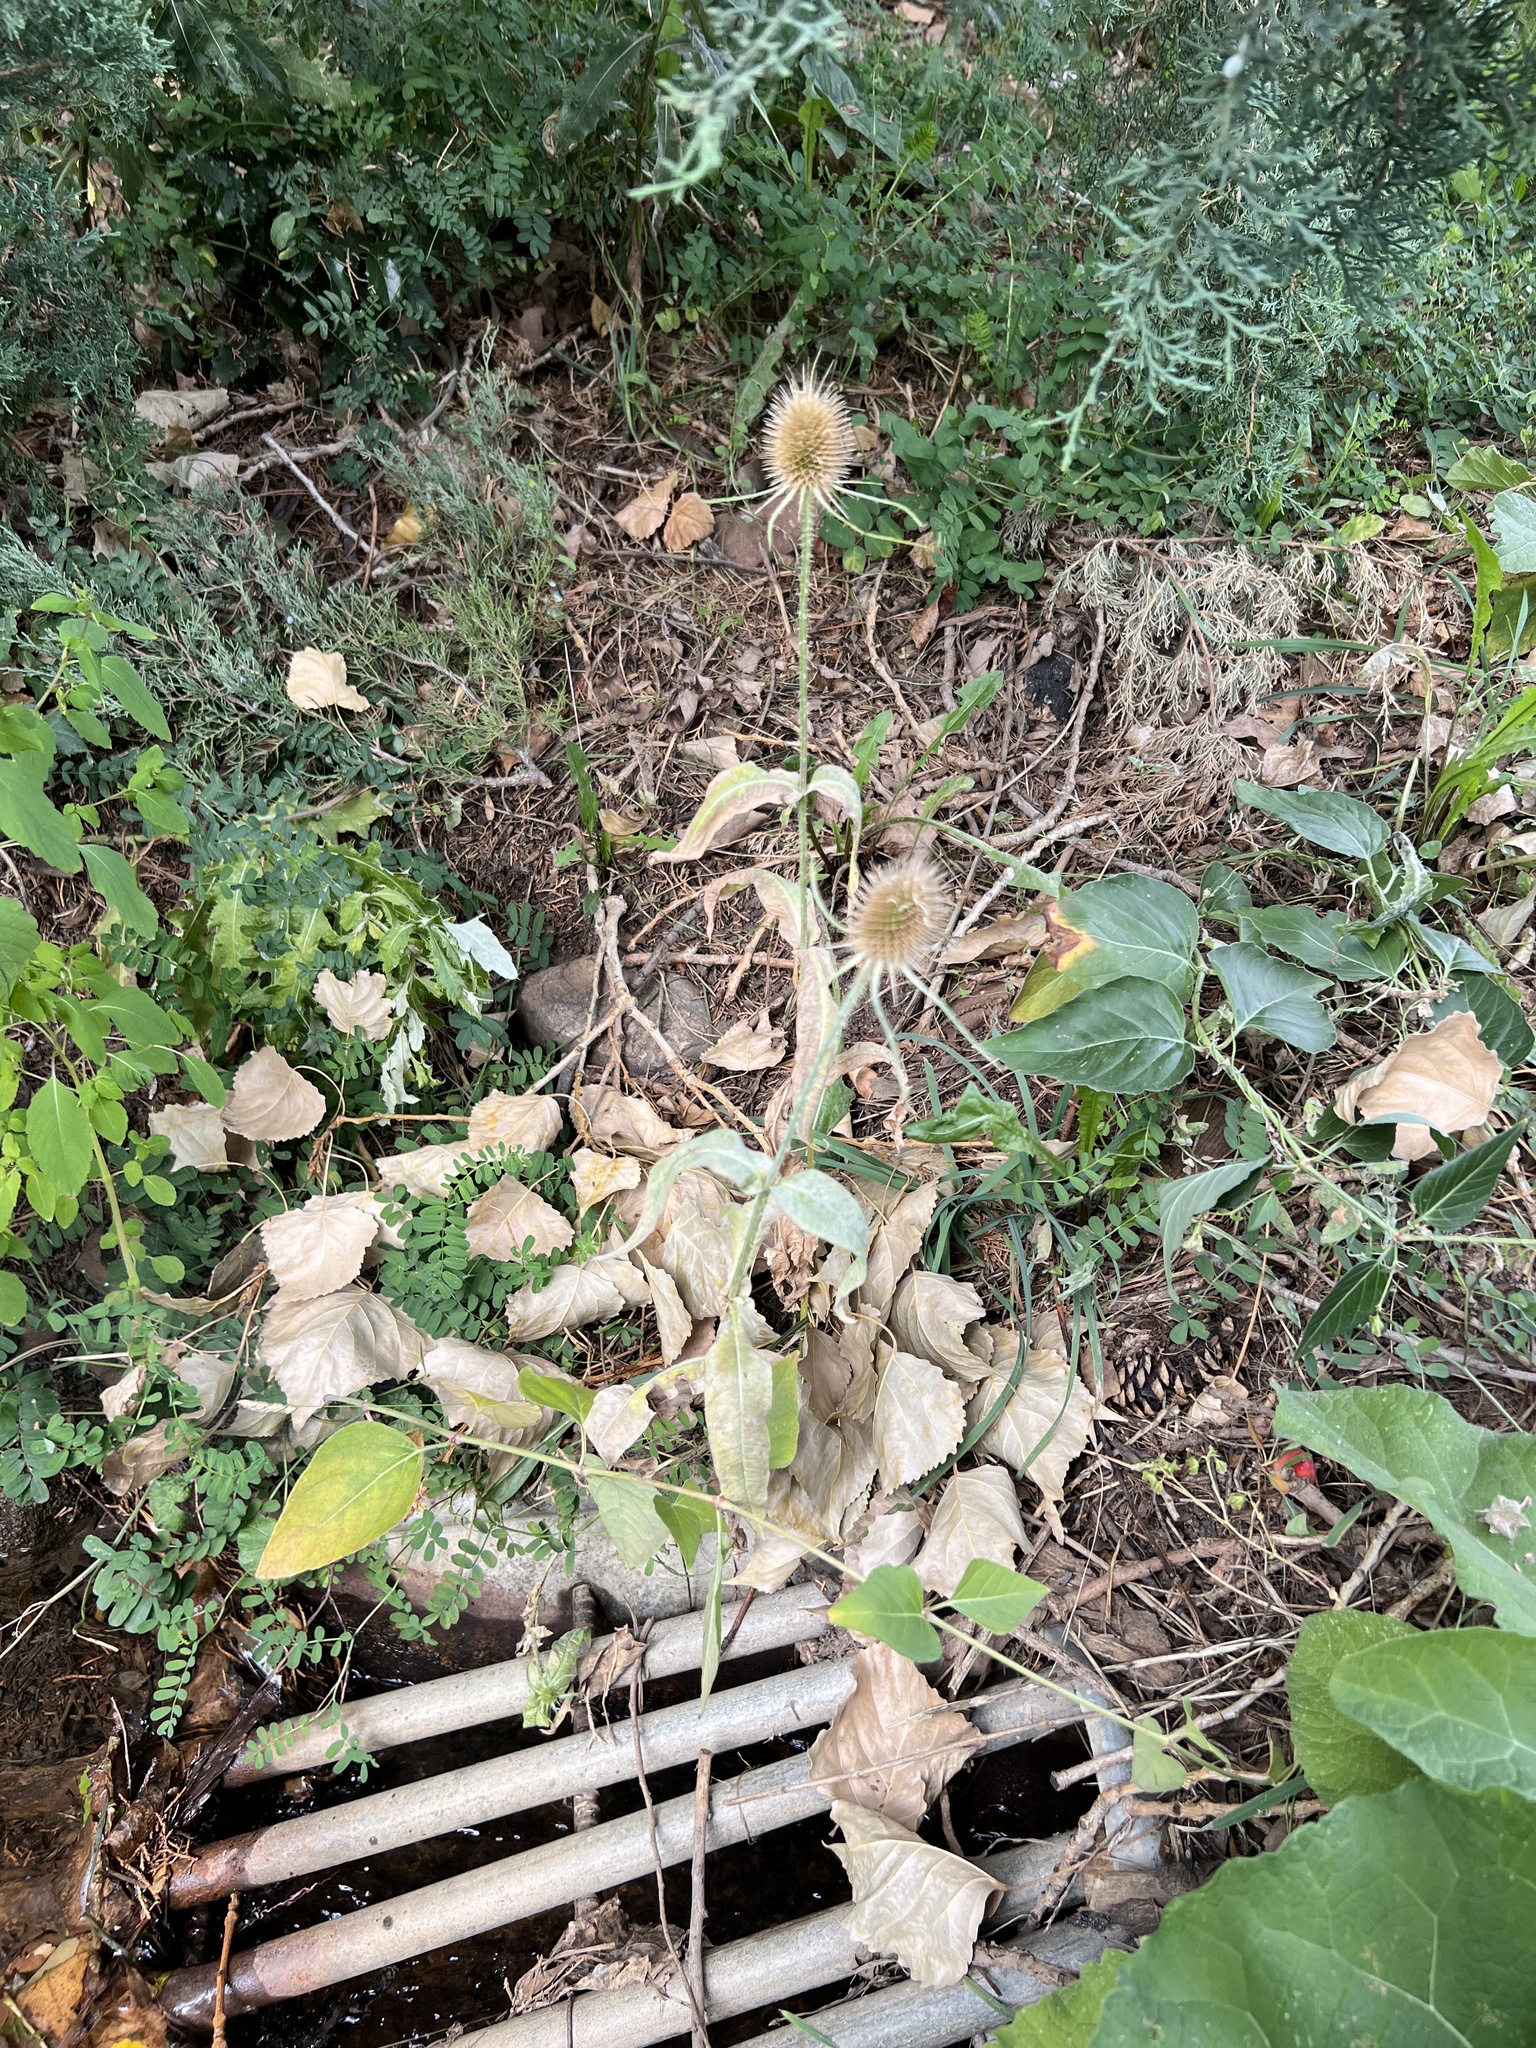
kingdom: Plantae
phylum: Tracheophyta
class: Magnoliopsida
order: Dipsacales
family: Caprifoliaceae
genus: Dipsacus
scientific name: Dipsacus fullonum
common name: Teasel
